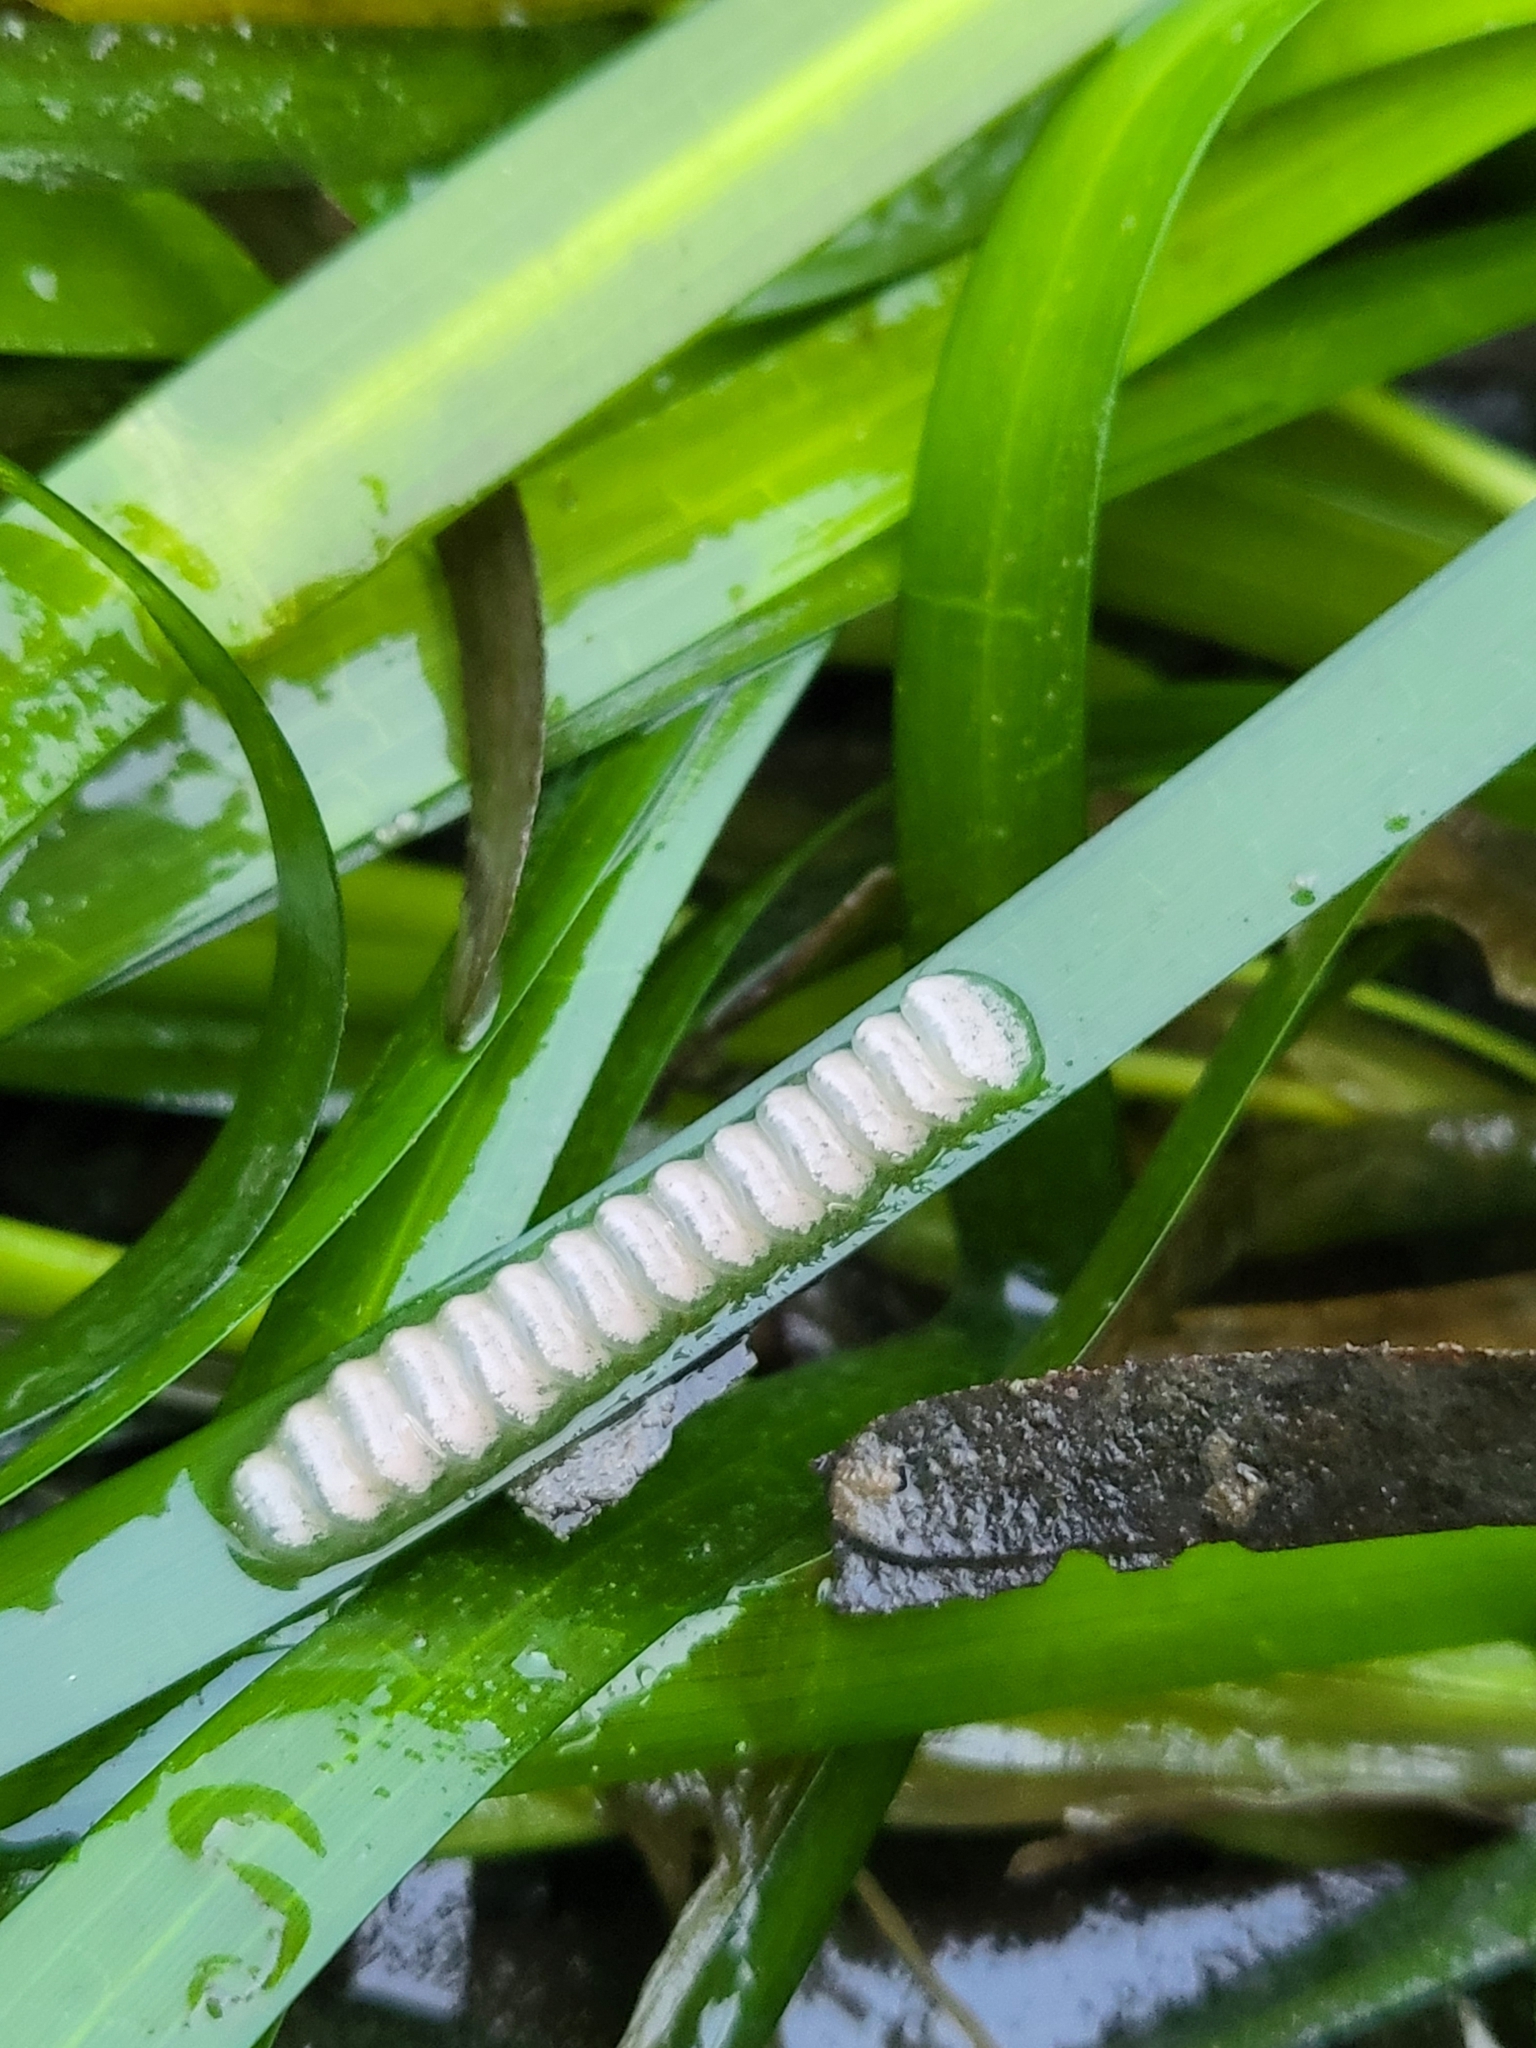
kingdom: Animalia
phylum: Mollusca
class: Gastropoda
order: Neogastropoda
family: Conidae
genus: Californiconus
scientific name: Californiconus californicus
